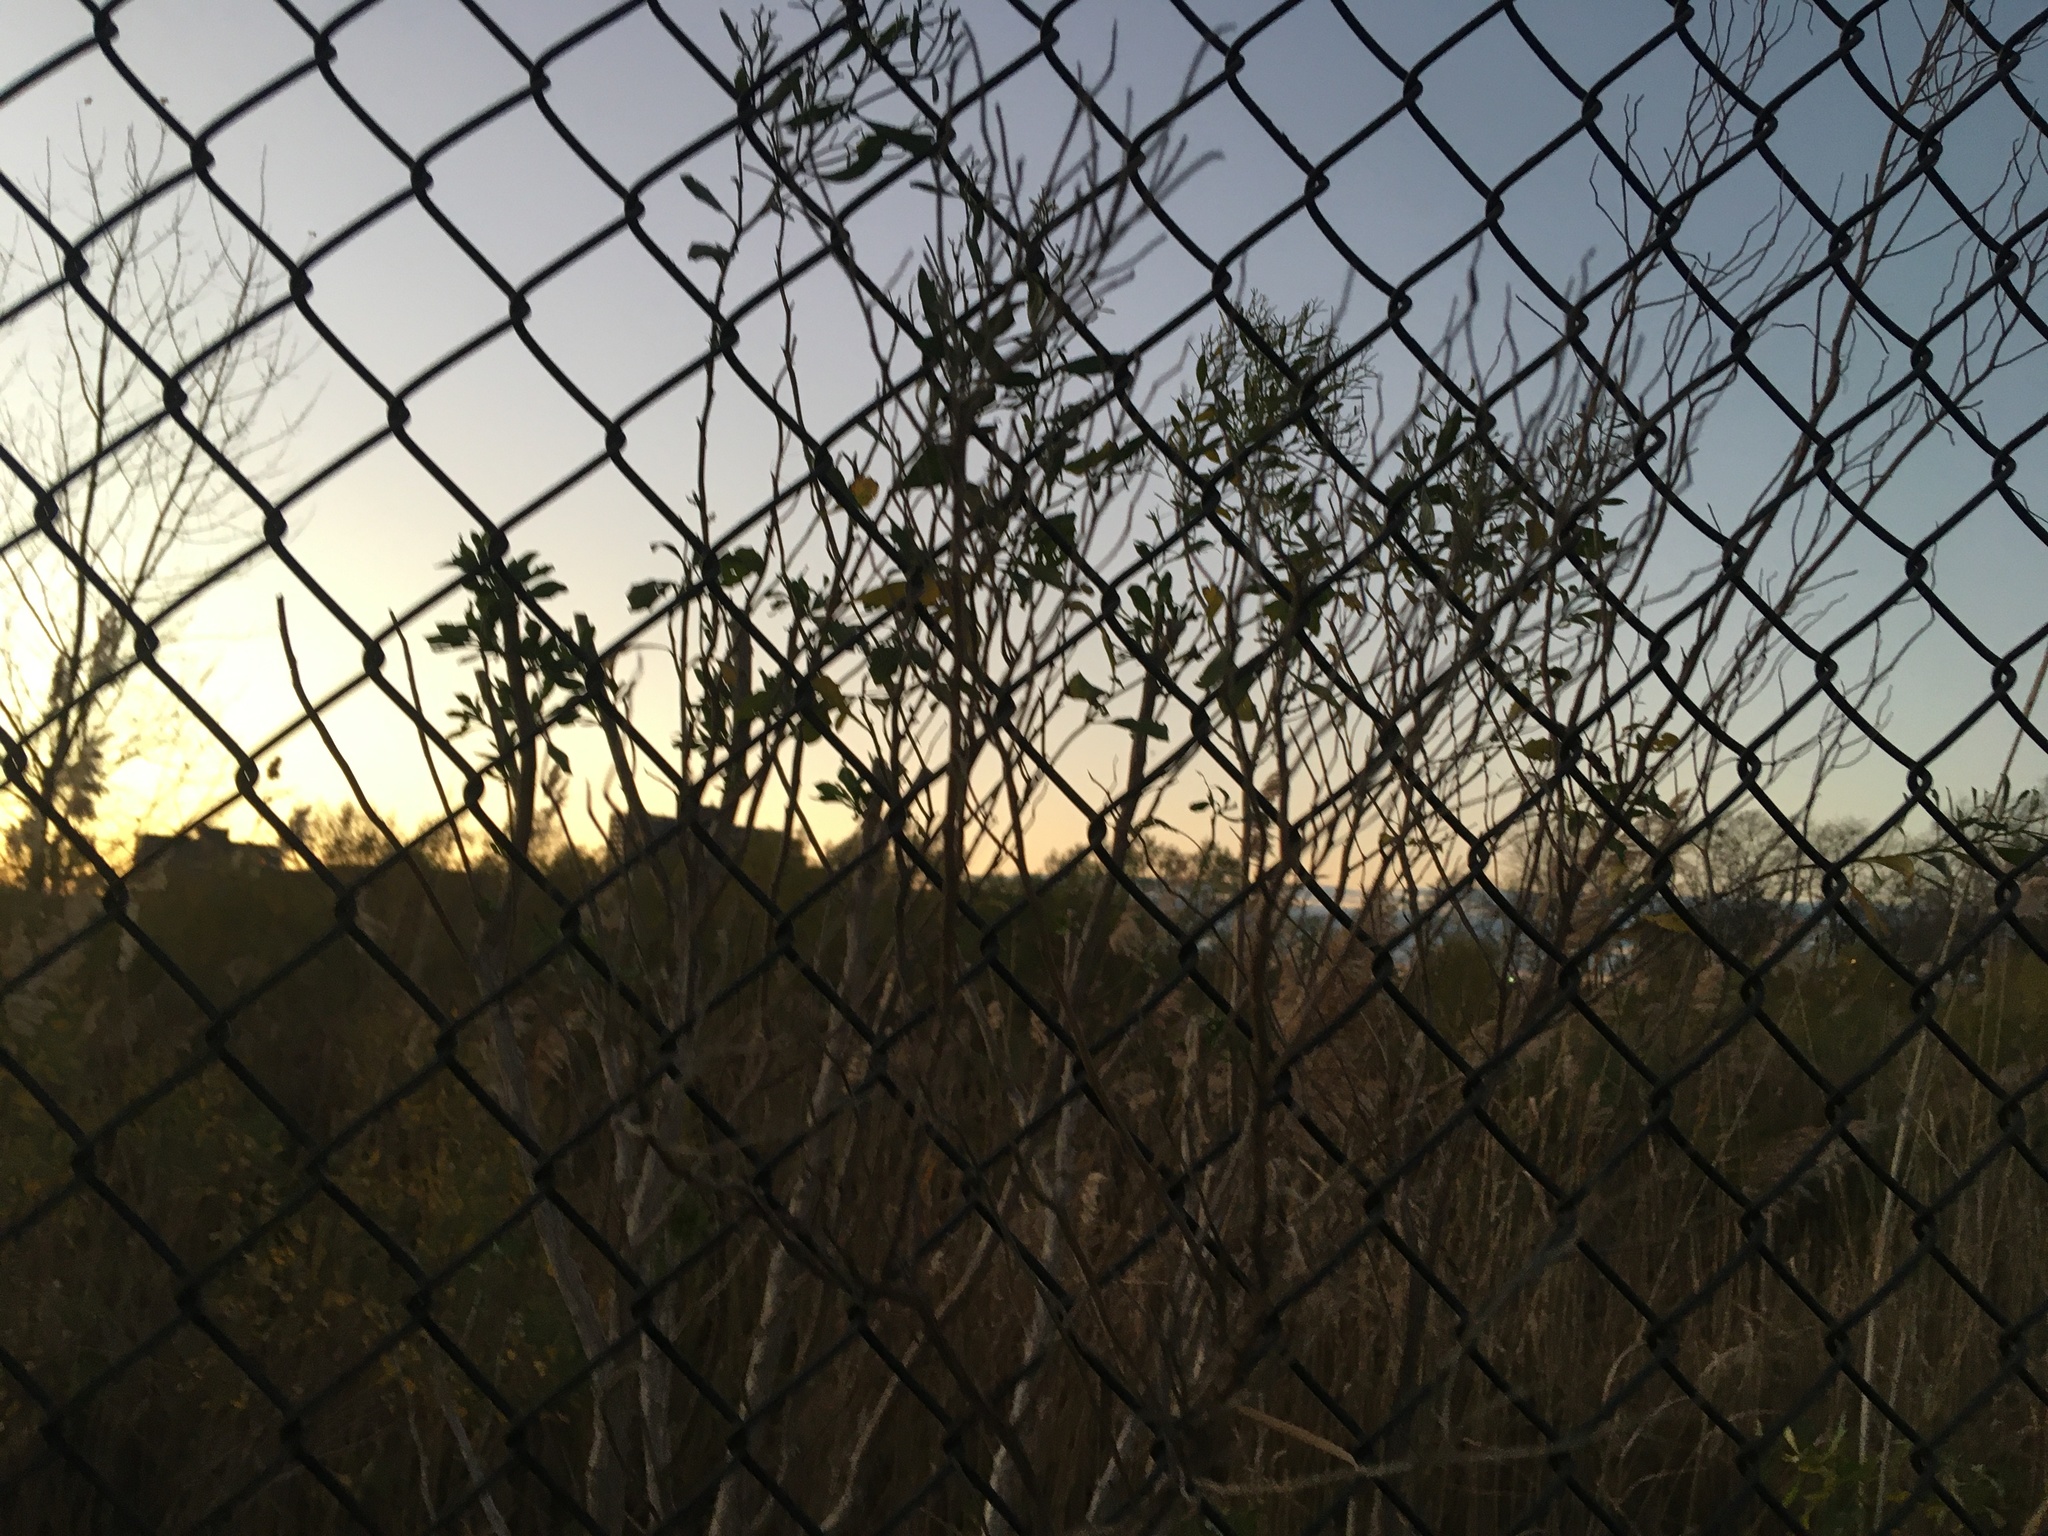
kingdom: Plantae
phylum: Tracheophyta
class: Magnoliopsida
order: Asterales
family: Asteraceae
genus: Baccharis
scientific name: Baccharis halimifolia
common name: Eastern baccharis
